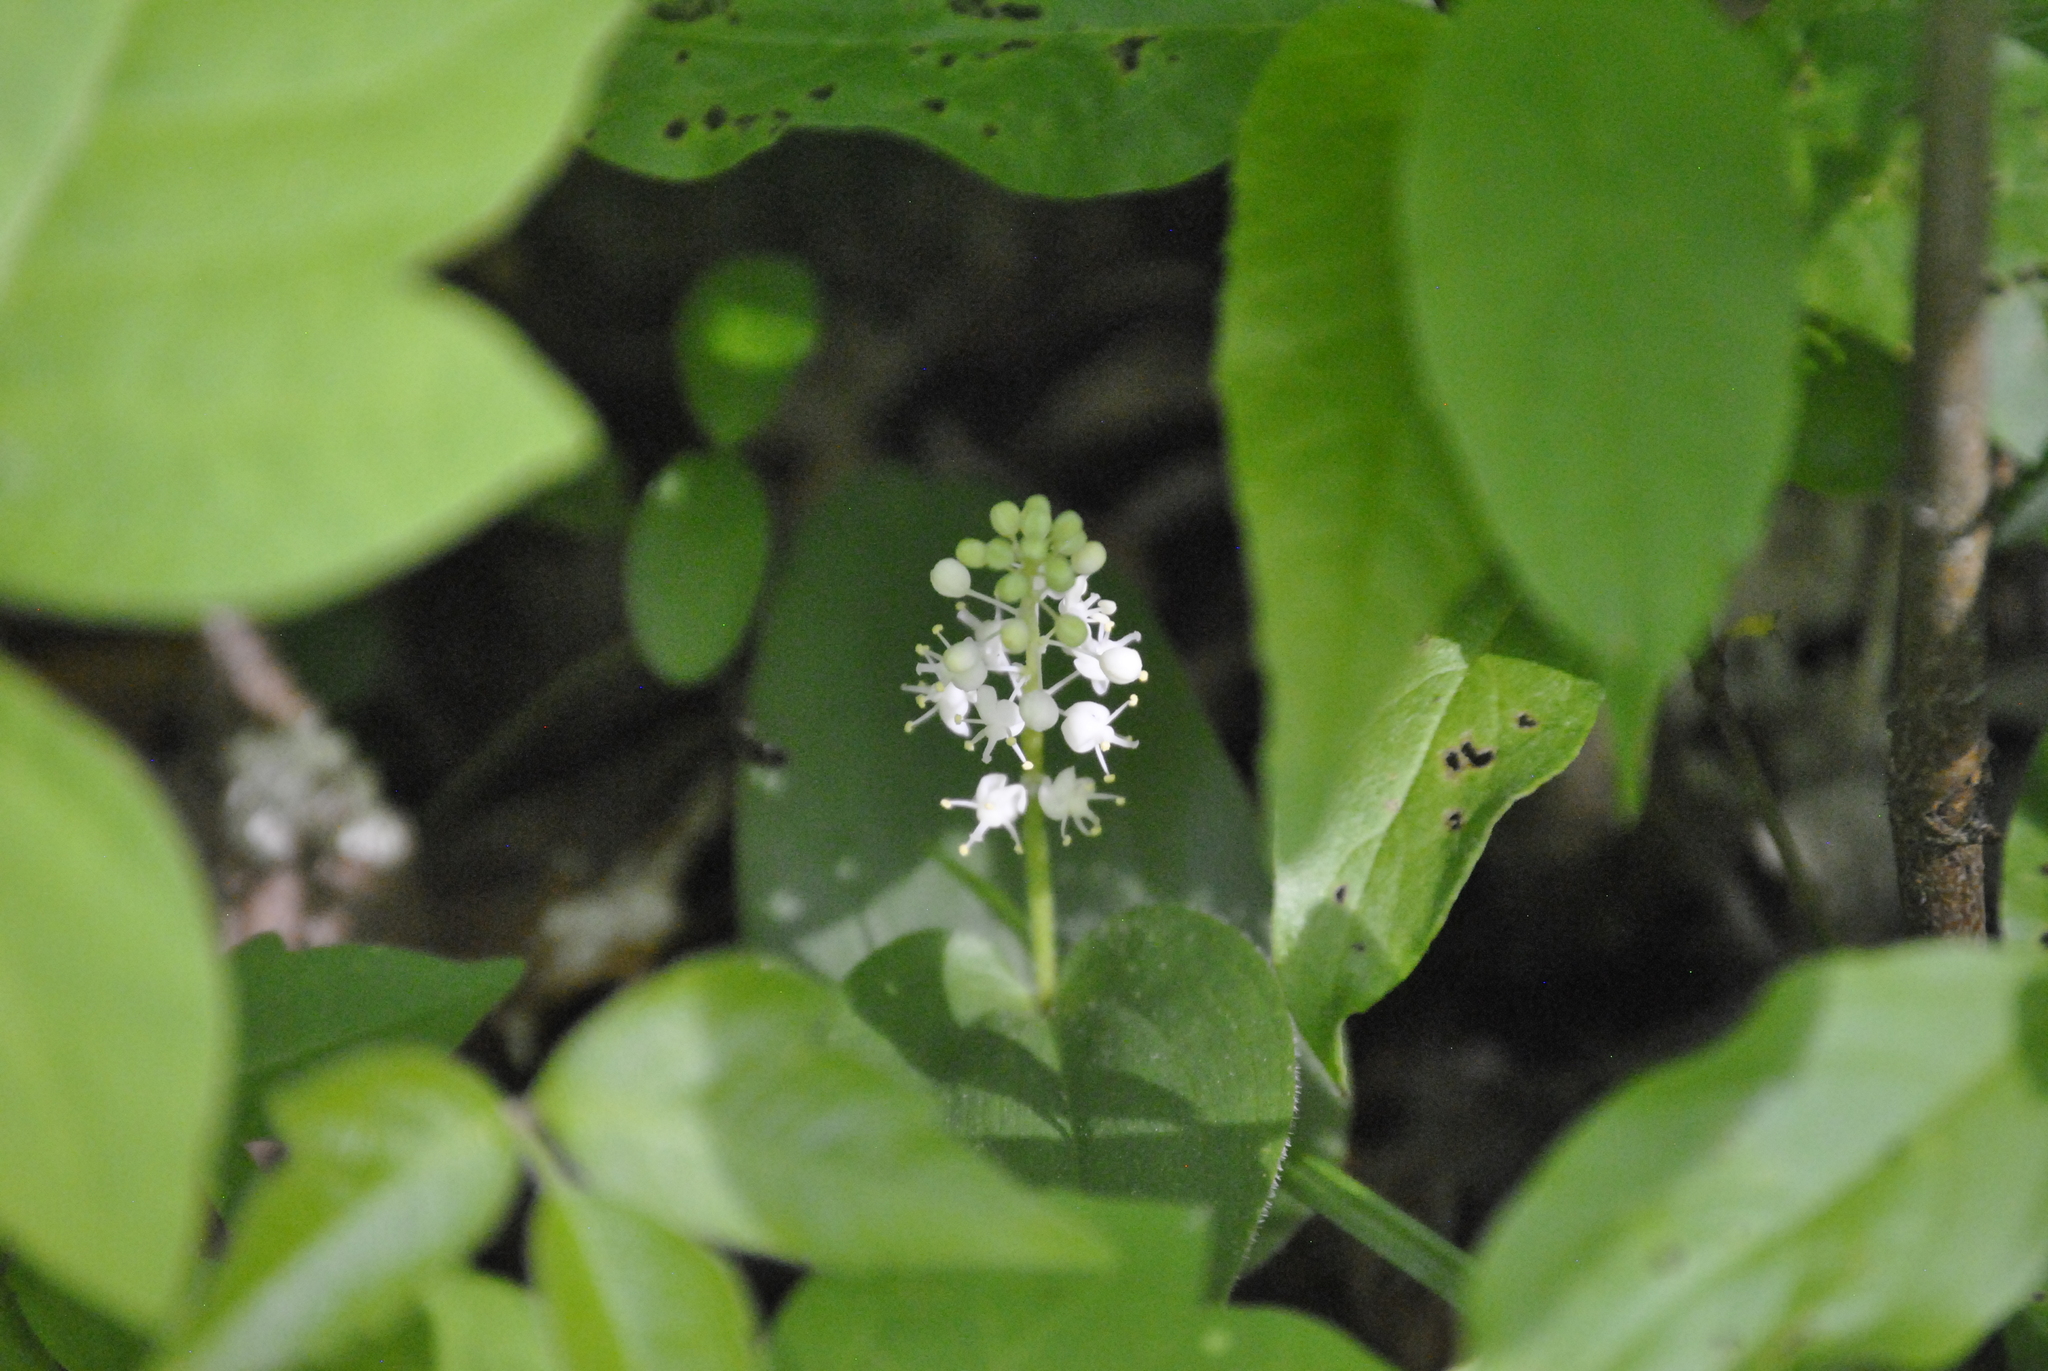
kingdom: Plantae
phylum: Tracheophyta
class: Liliopsida
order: Asparagales
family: Asparagaceae
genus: Maianthemum
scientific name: Maianthemum canadense
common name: False lily-of-the-valley
